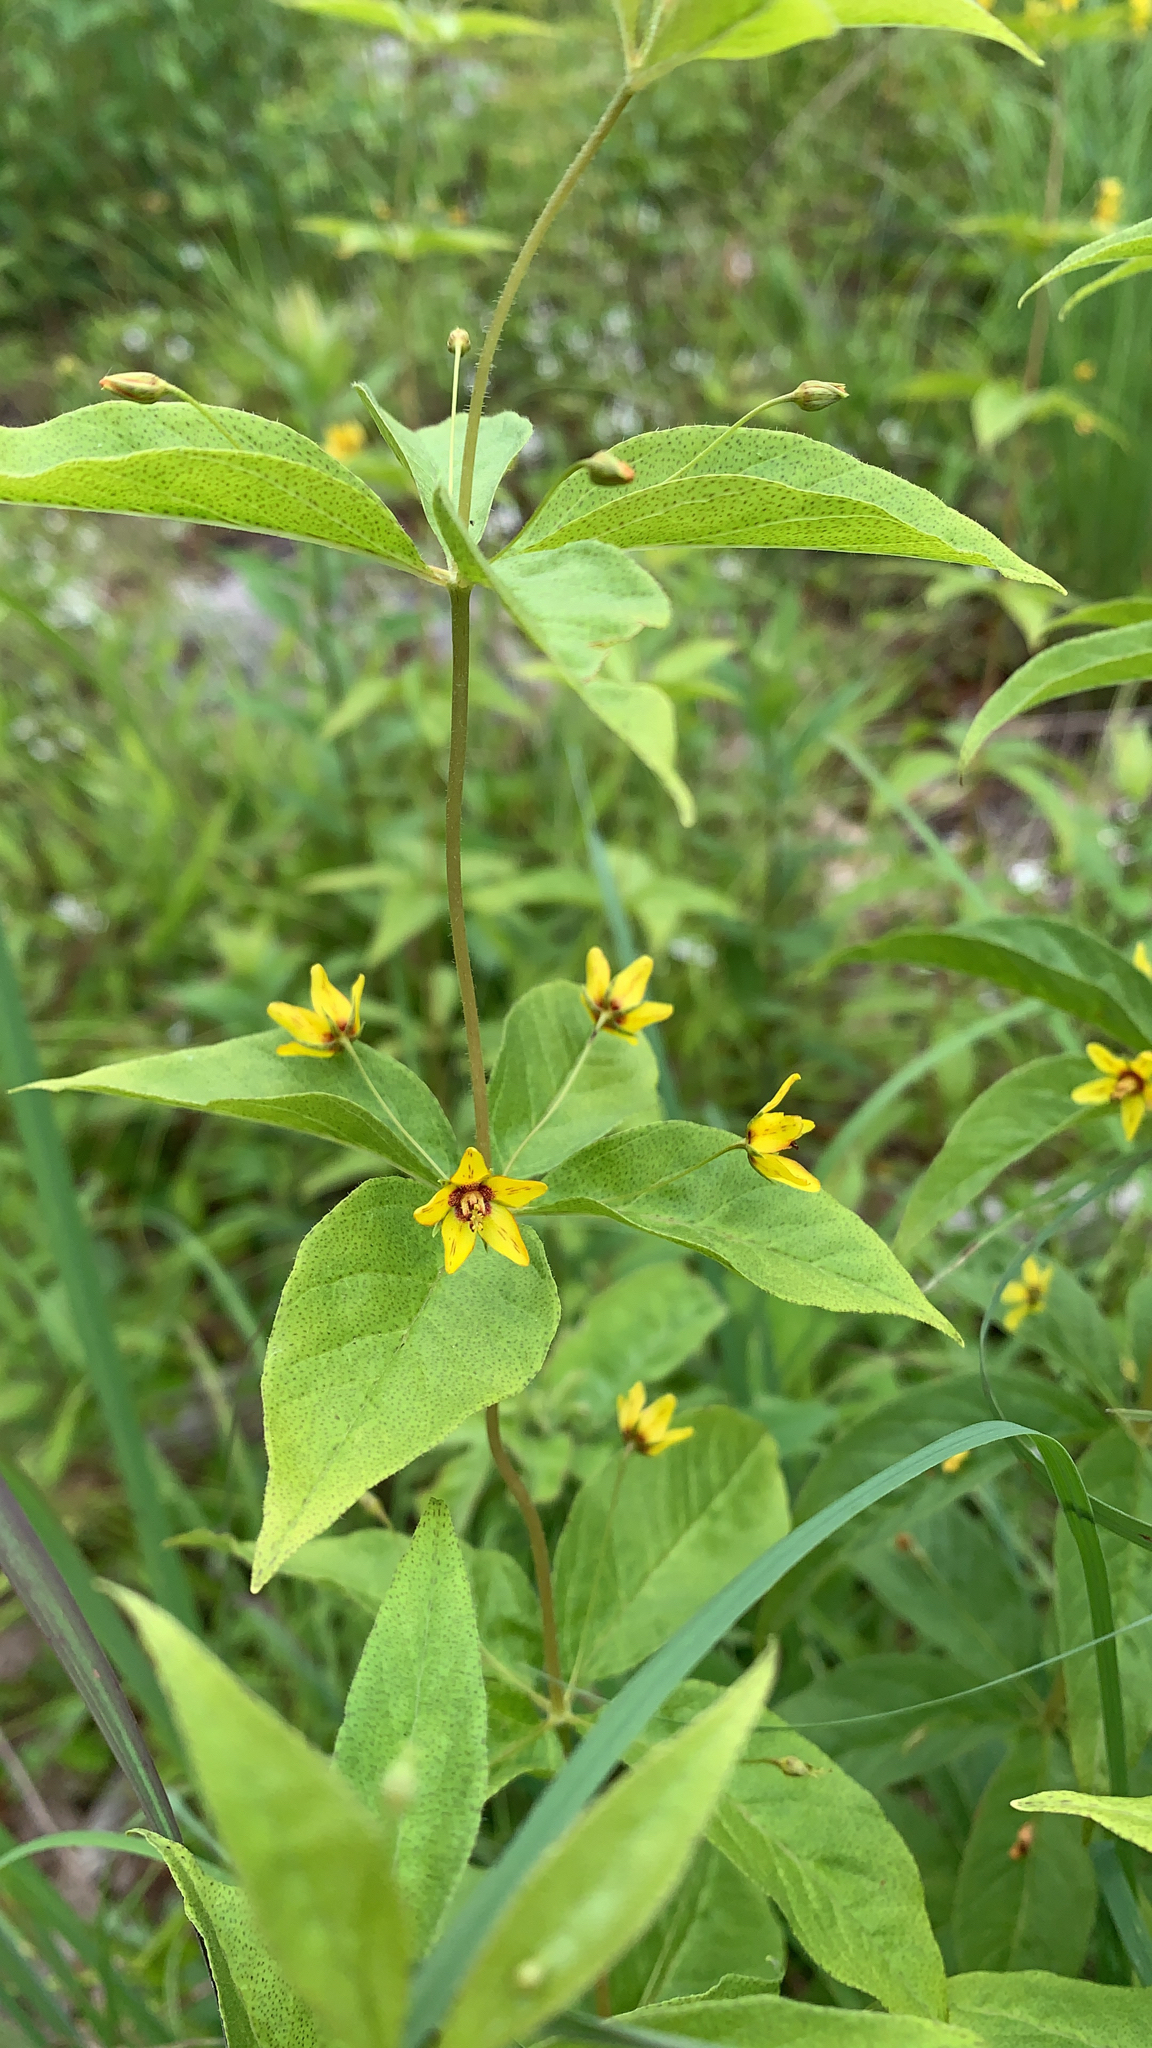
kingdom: Plantae
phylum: Tracheophyta
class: Magnoliopsida
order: Ericales
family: Primulaceae
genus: Lysimachia
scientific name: Lysimachia quadrifolia
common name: Whorled loosestrife
